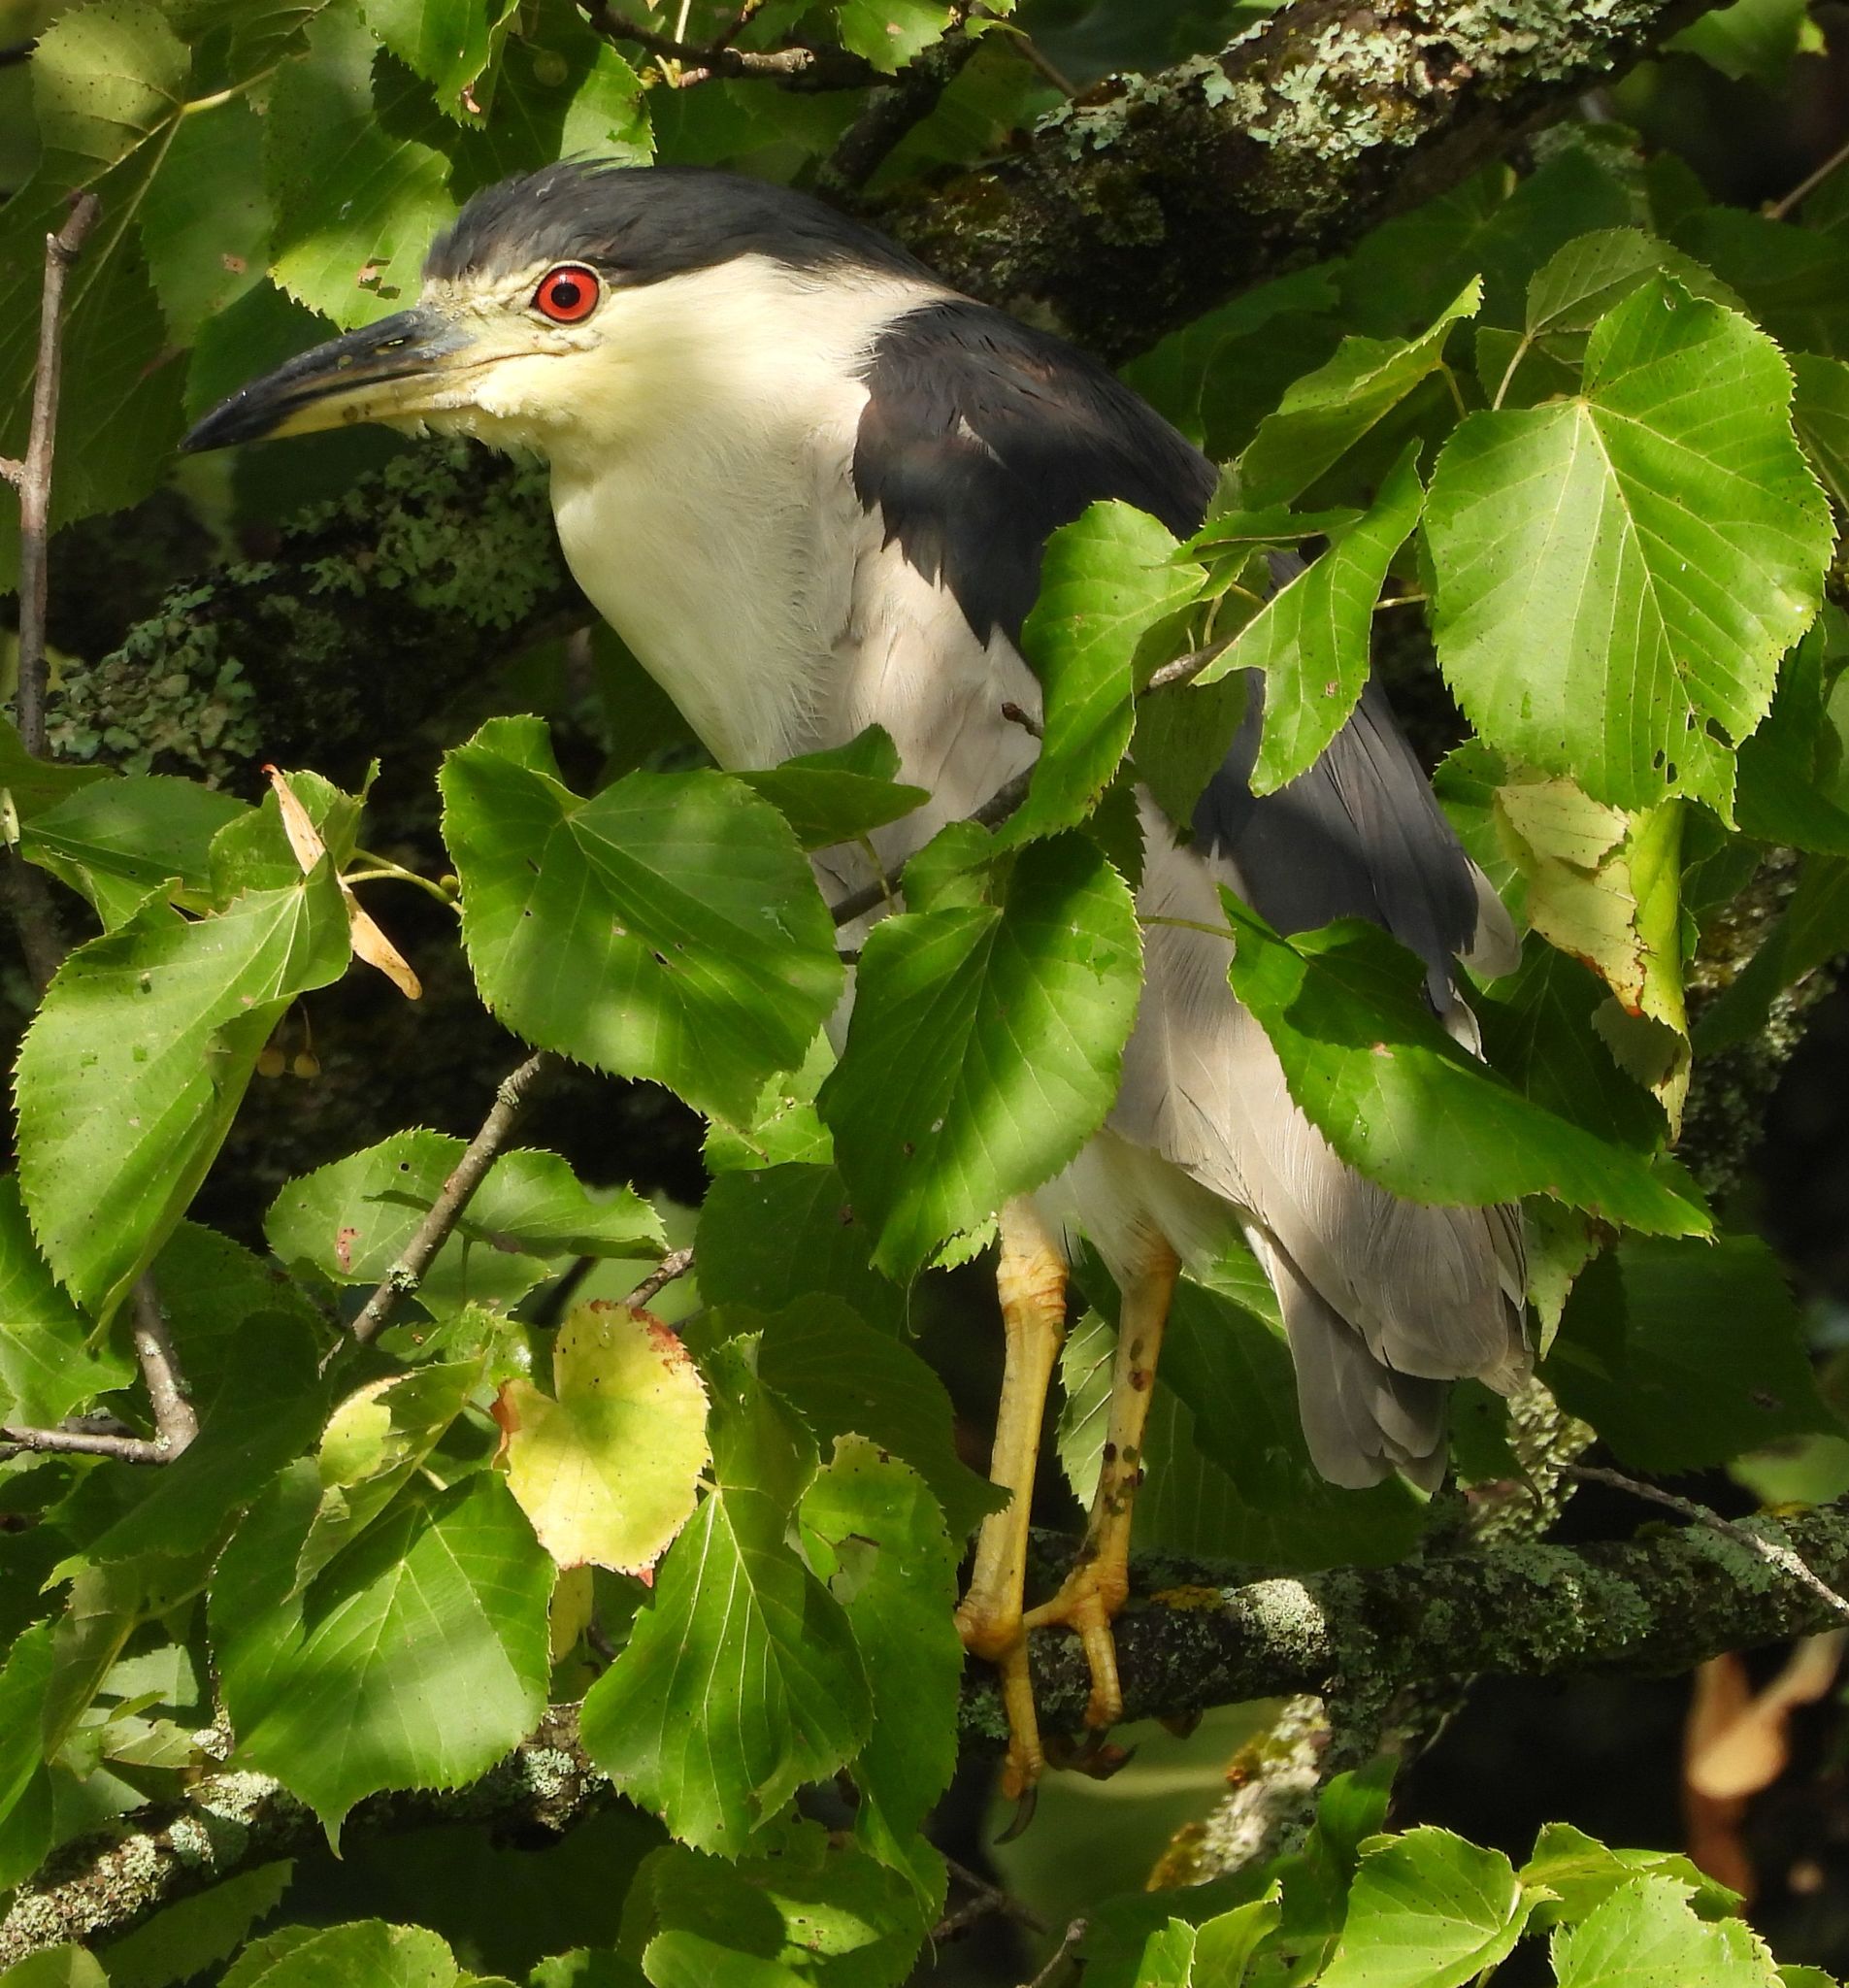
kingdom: Animalia
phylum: Chordata
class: Aves
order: Pelecaniformes
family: Ardeidae
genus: Nycticorax
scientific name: Nycticorax nycticorax
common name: Black-crowned night heron
